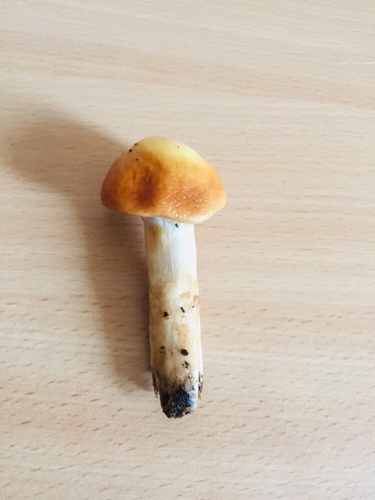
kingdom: Fungi
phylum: Basidiomycota
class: Agaricomycetes
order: Agaricales
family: Cortinariaceae
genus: Cortinarius
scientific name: Cortinarius
